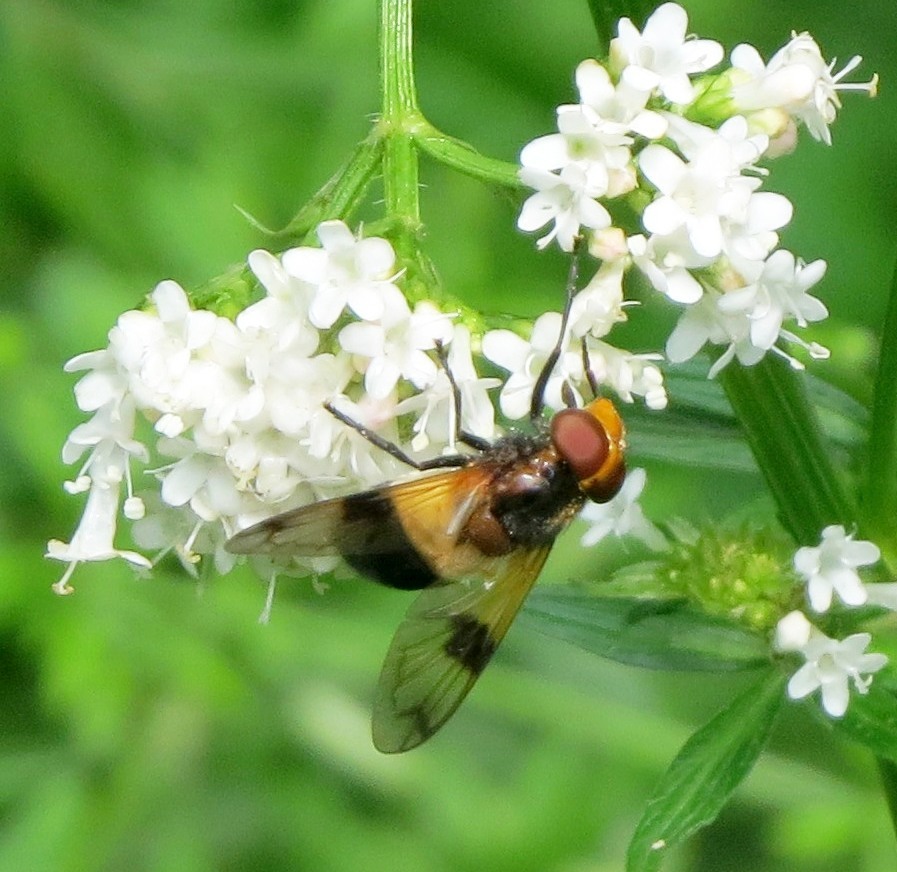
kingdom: Animalia
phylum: Arthropoda
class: Insecta
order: Diptera
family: Syrphidae
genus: Volucella
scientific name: Volucella pellucens
